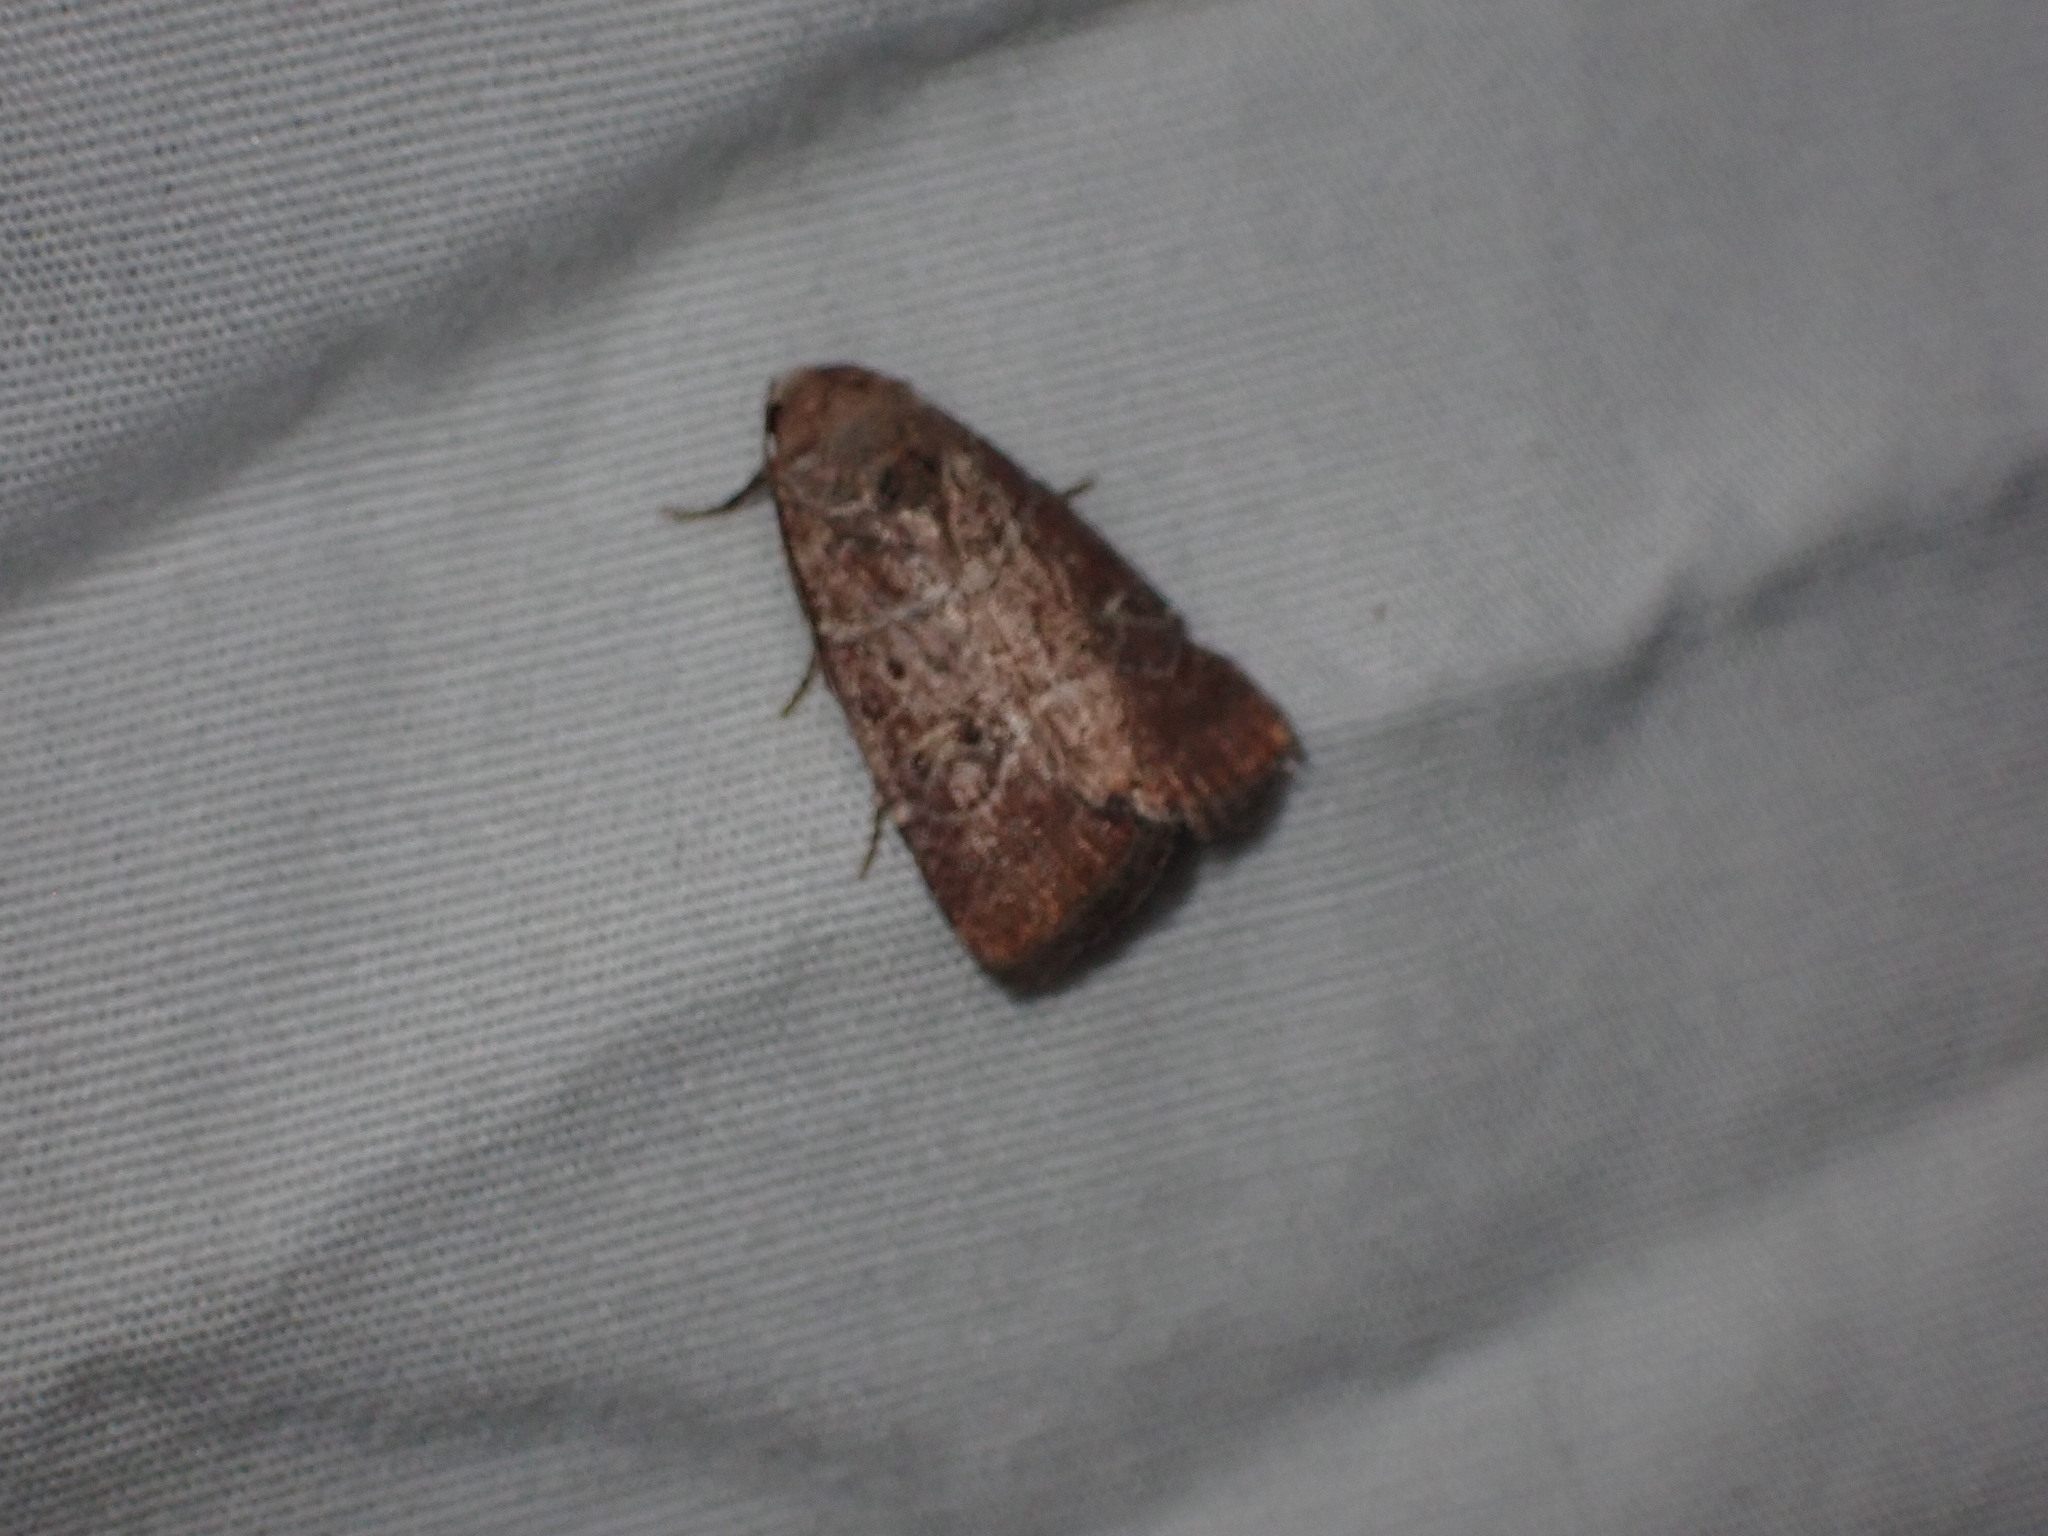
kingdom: Animalia
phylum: Arthropoda
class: Insecta
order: Lepidoptera
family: Noctuidae
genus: Elaphria
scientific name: Elaphria grata
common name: Grateful midget moth
